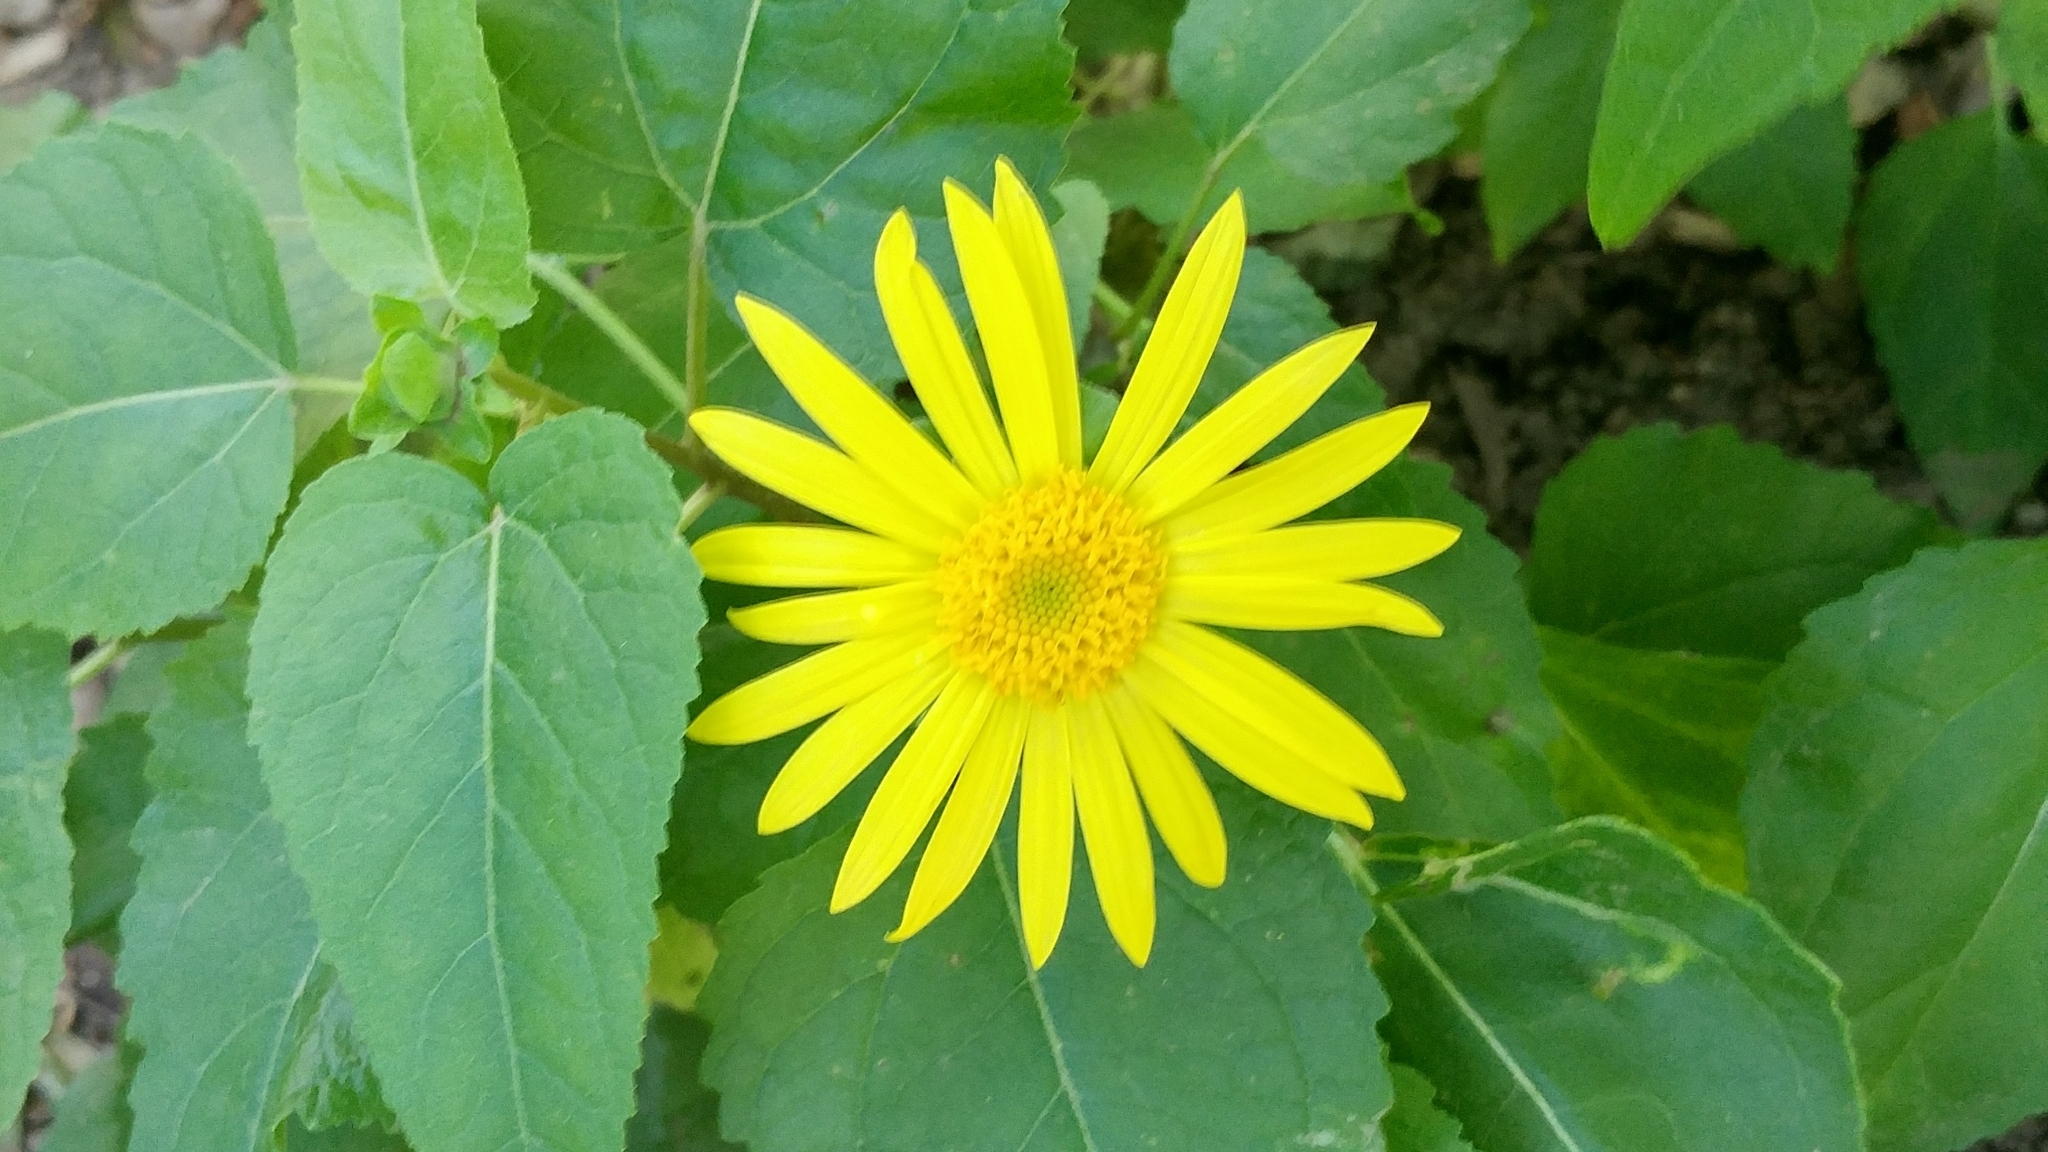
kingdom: Plantae
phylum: Tracheophyta
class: Magnoliopsida
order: Asterales
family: Asteraceae
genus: Venegasia
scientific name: Venegasia carpesioides
